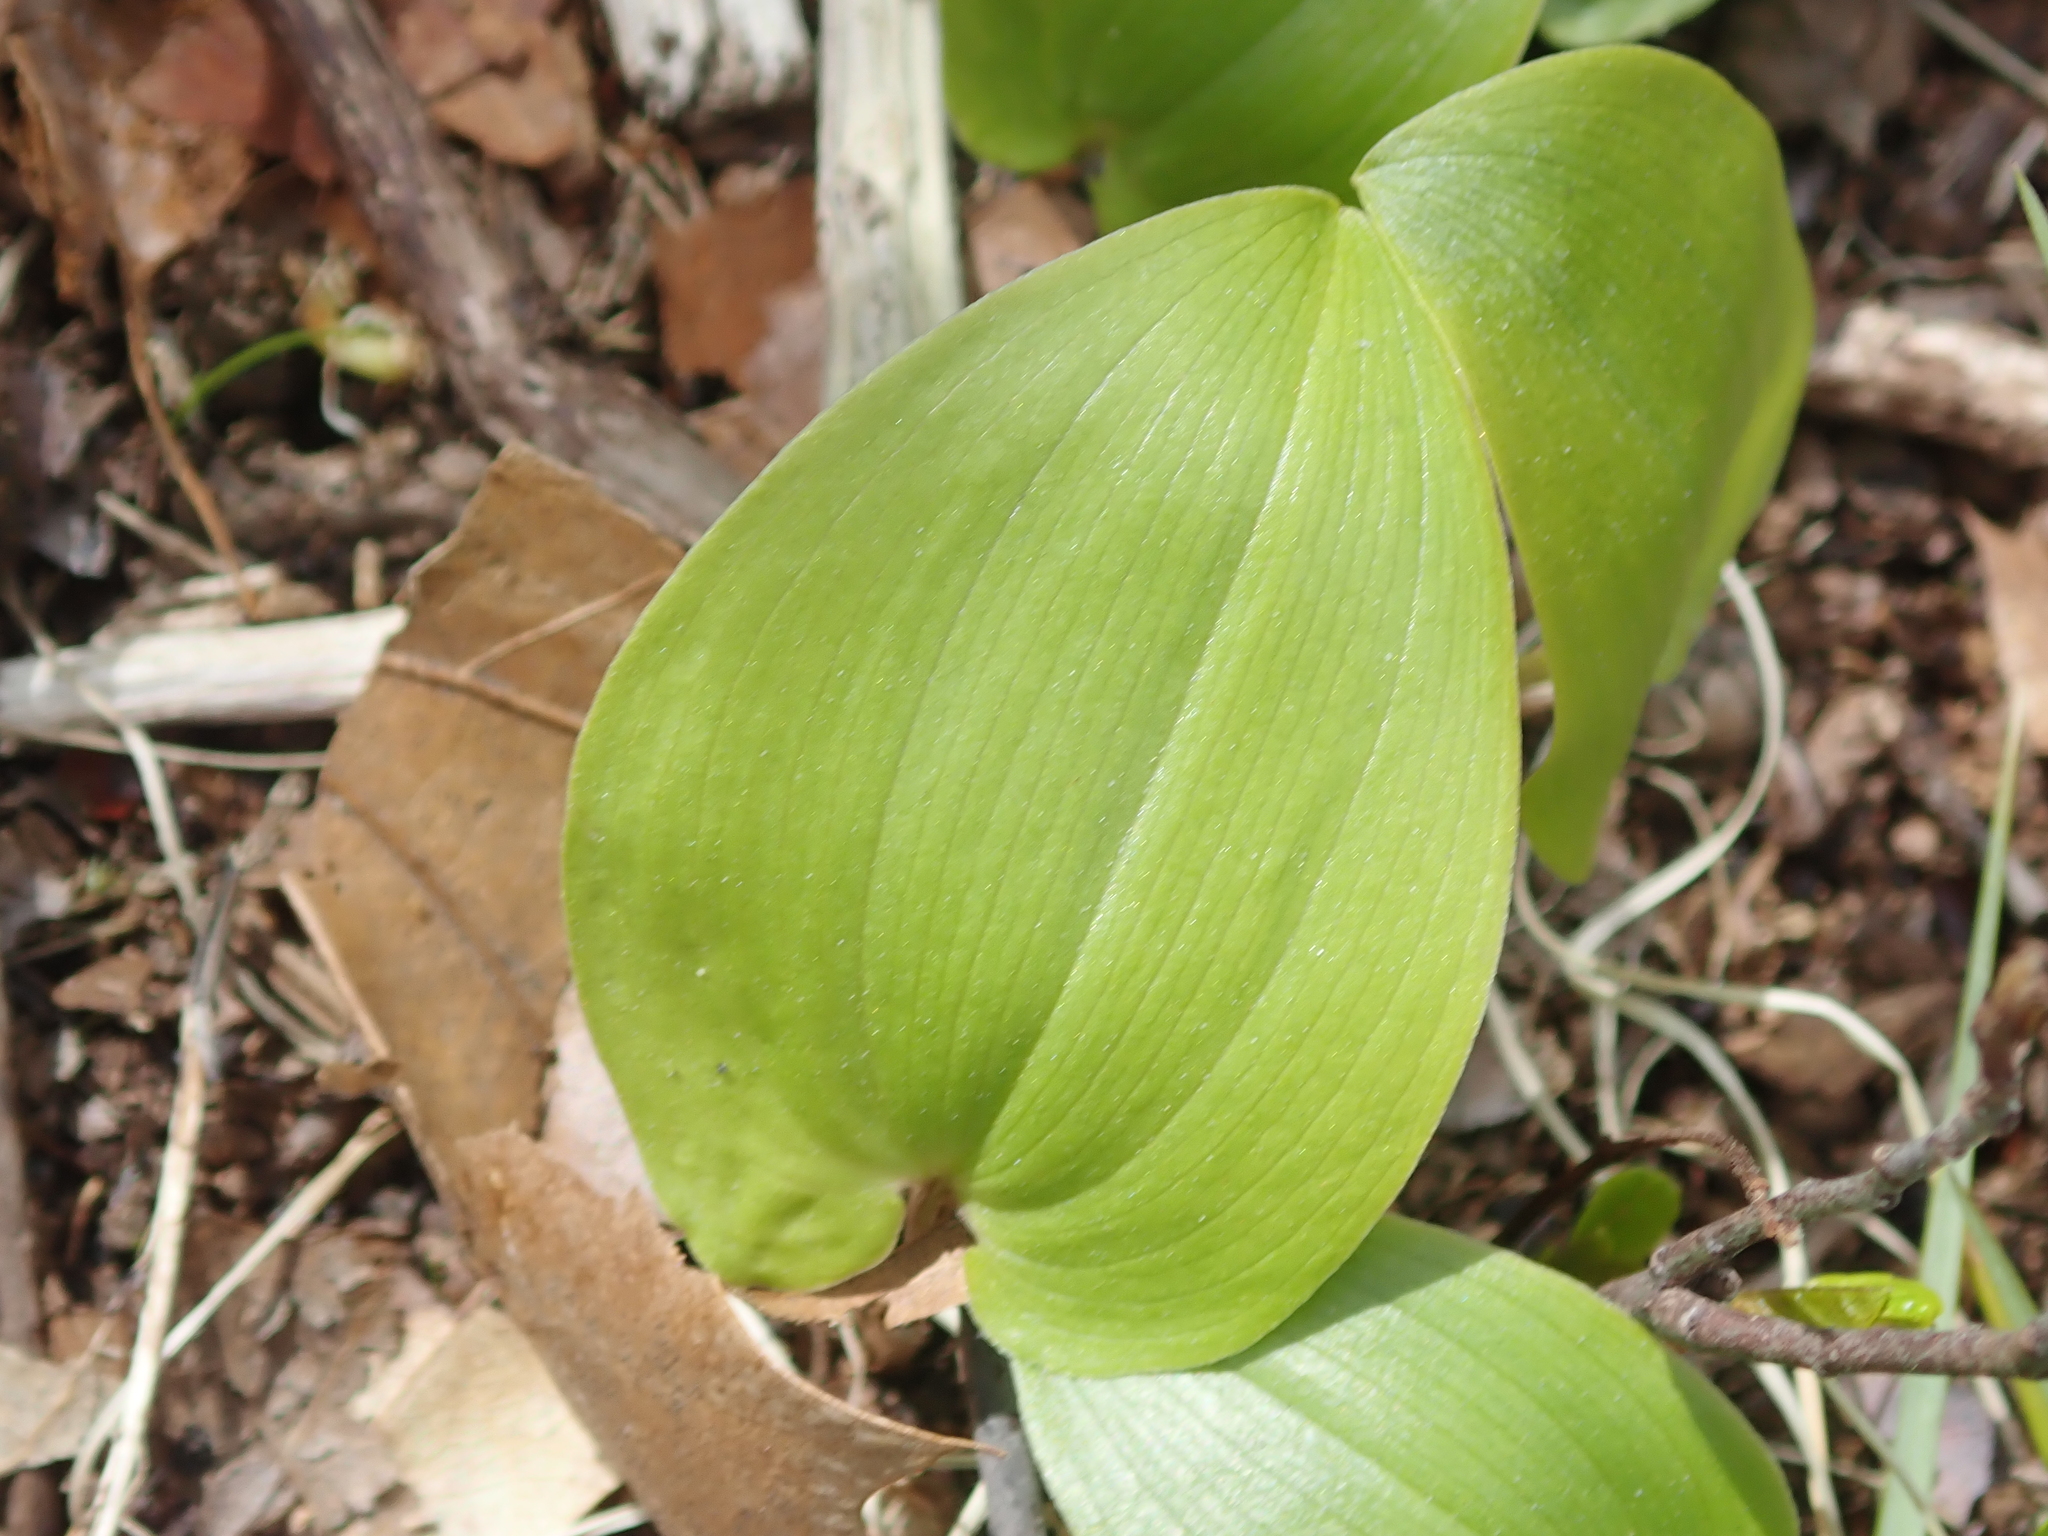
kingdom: Plantae
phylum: Tracheophyta
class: Liliopsida
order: Asparagales
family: Asparagaceae
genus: Maianthemum
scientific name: Maianthemum canadense
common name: False lily-of-the-valley
